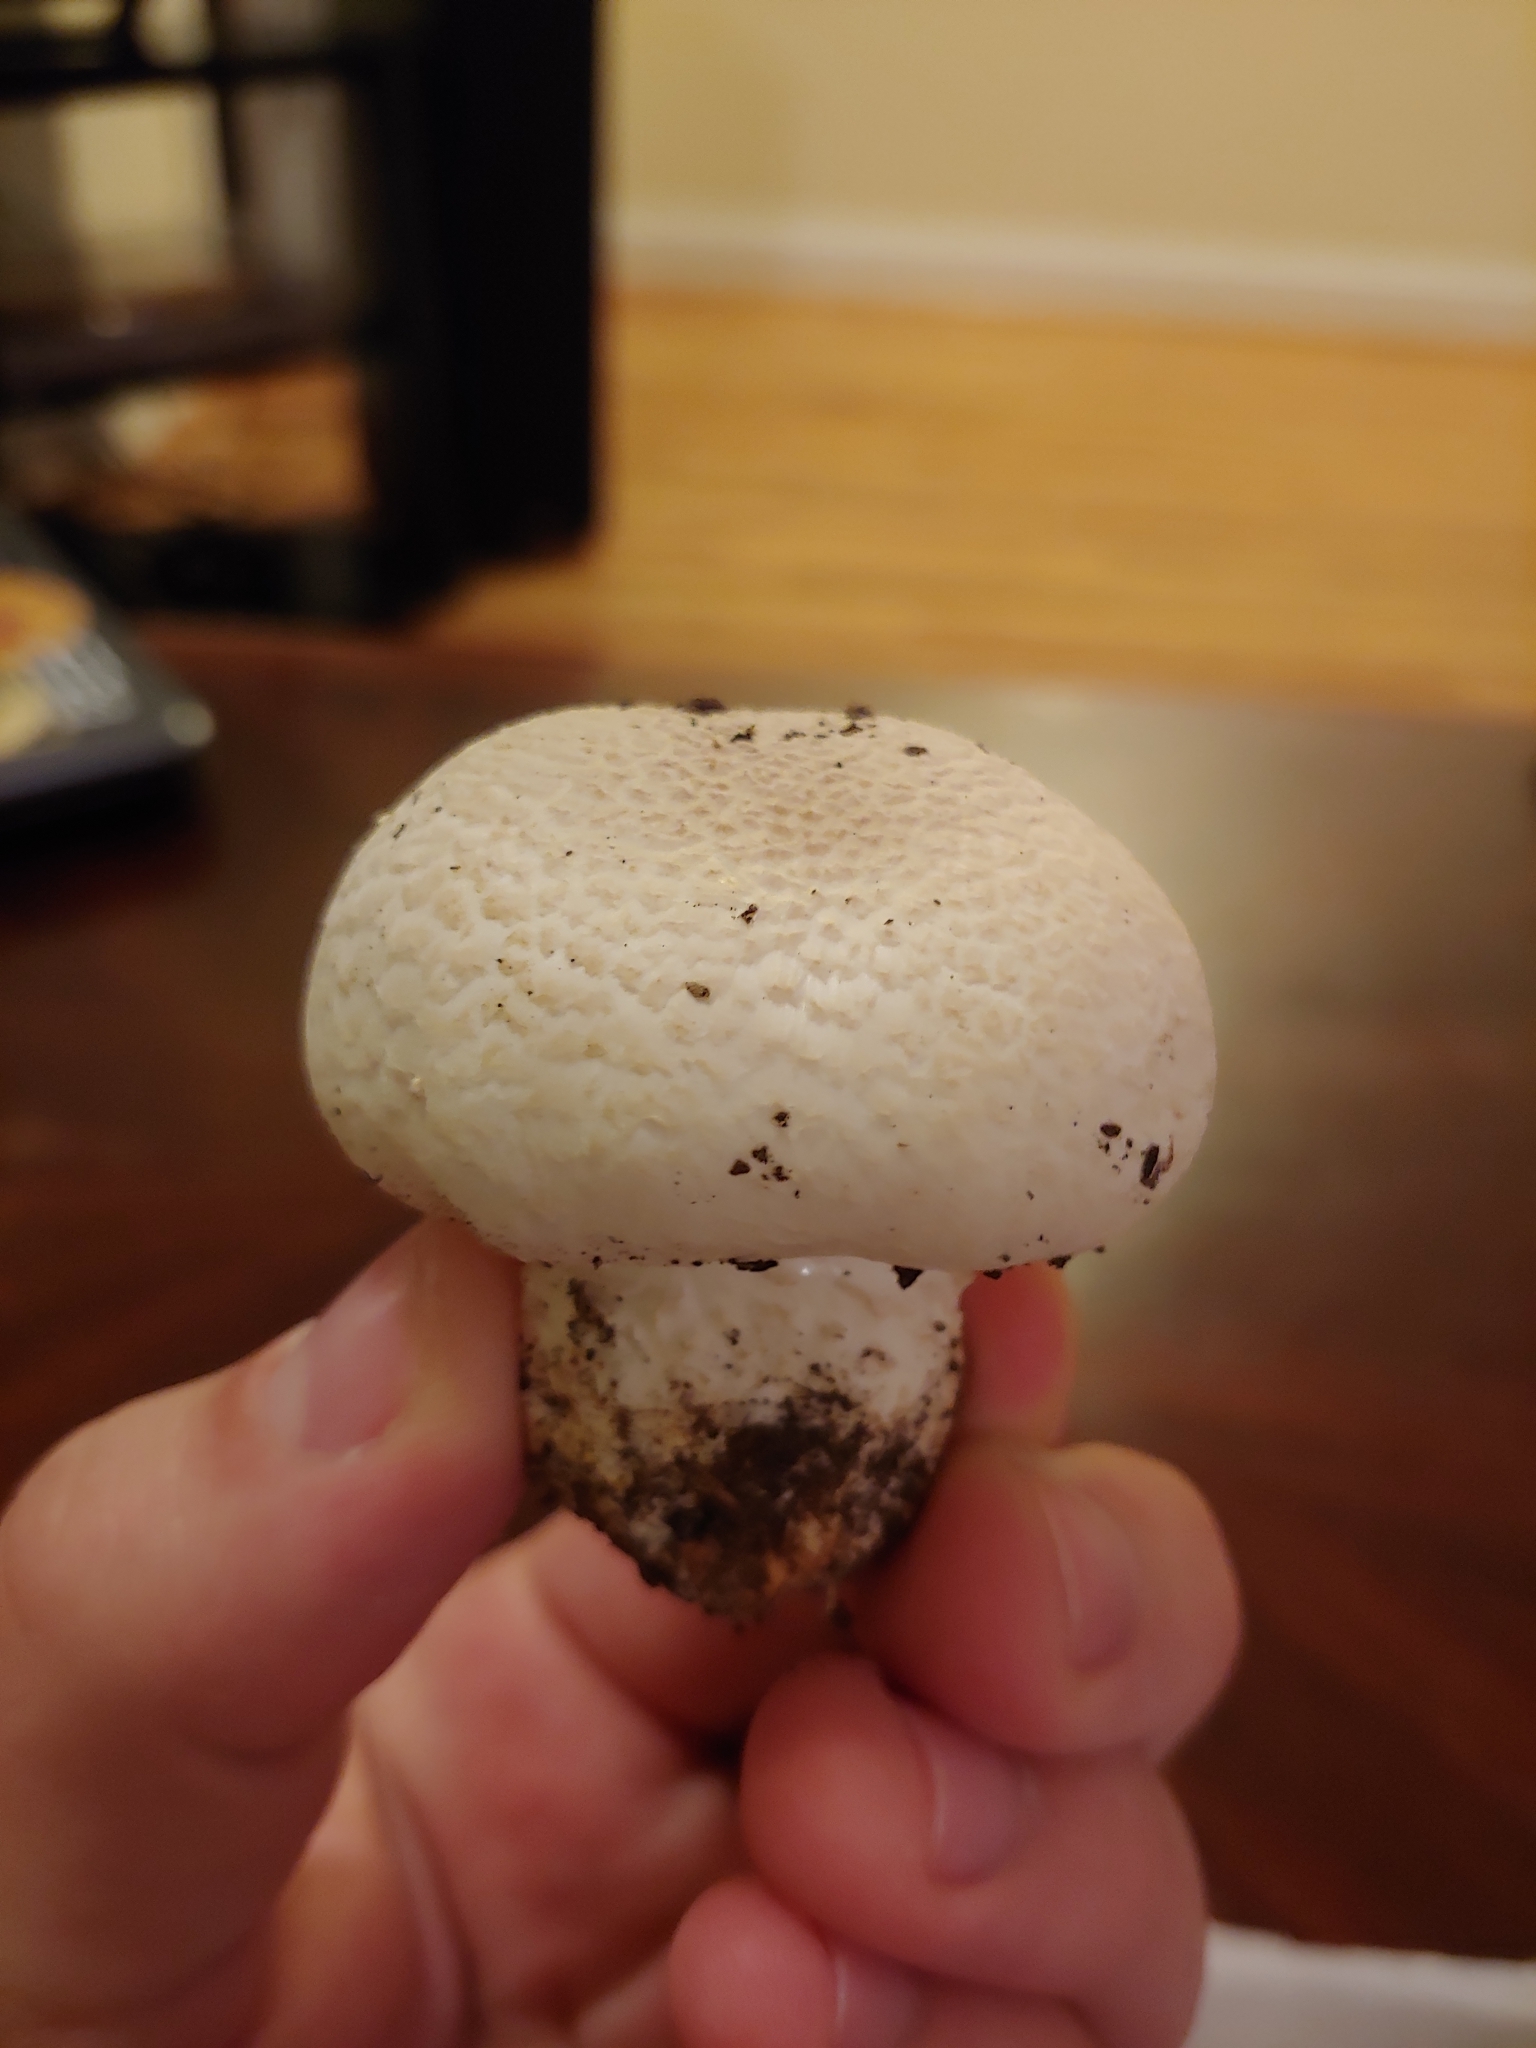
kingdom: Fungi
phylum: Basidiomycota
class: Agaricomycetes
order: Agaricales
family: Agaricaceae
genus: Agaricus
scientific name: Agaricus abruptibulbus
